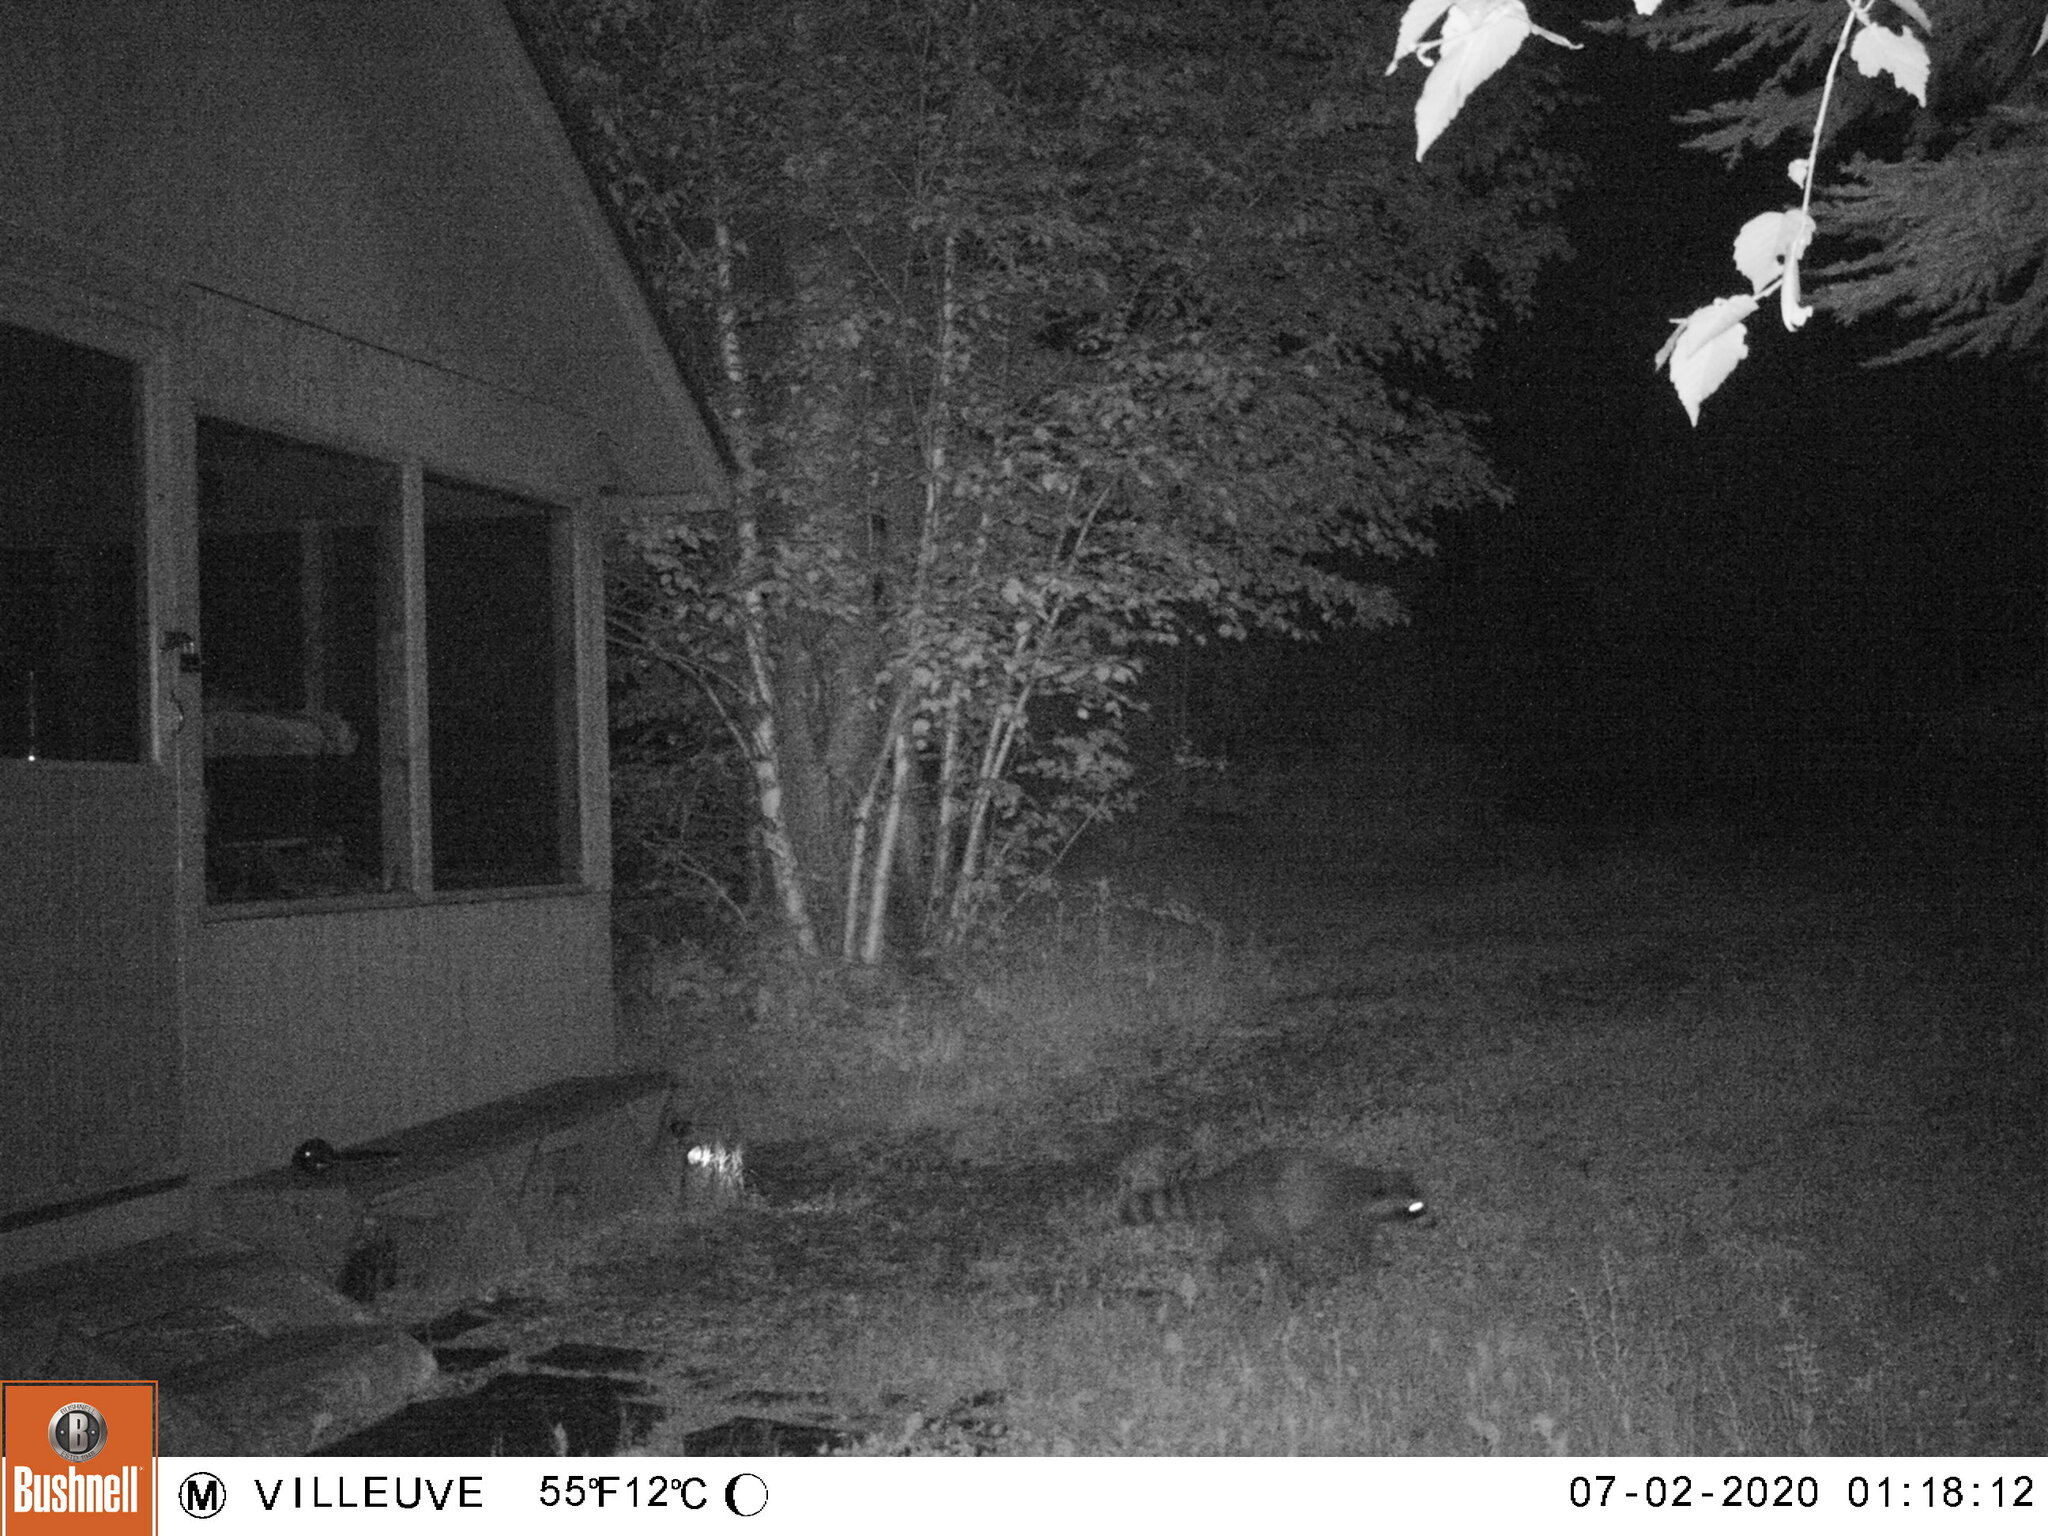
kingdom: Animalia
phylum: Chordata
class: Mammalia
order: Carnivora
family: Procyonidae
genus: Procyon
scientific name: Procyon lotor
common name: Raccoon
